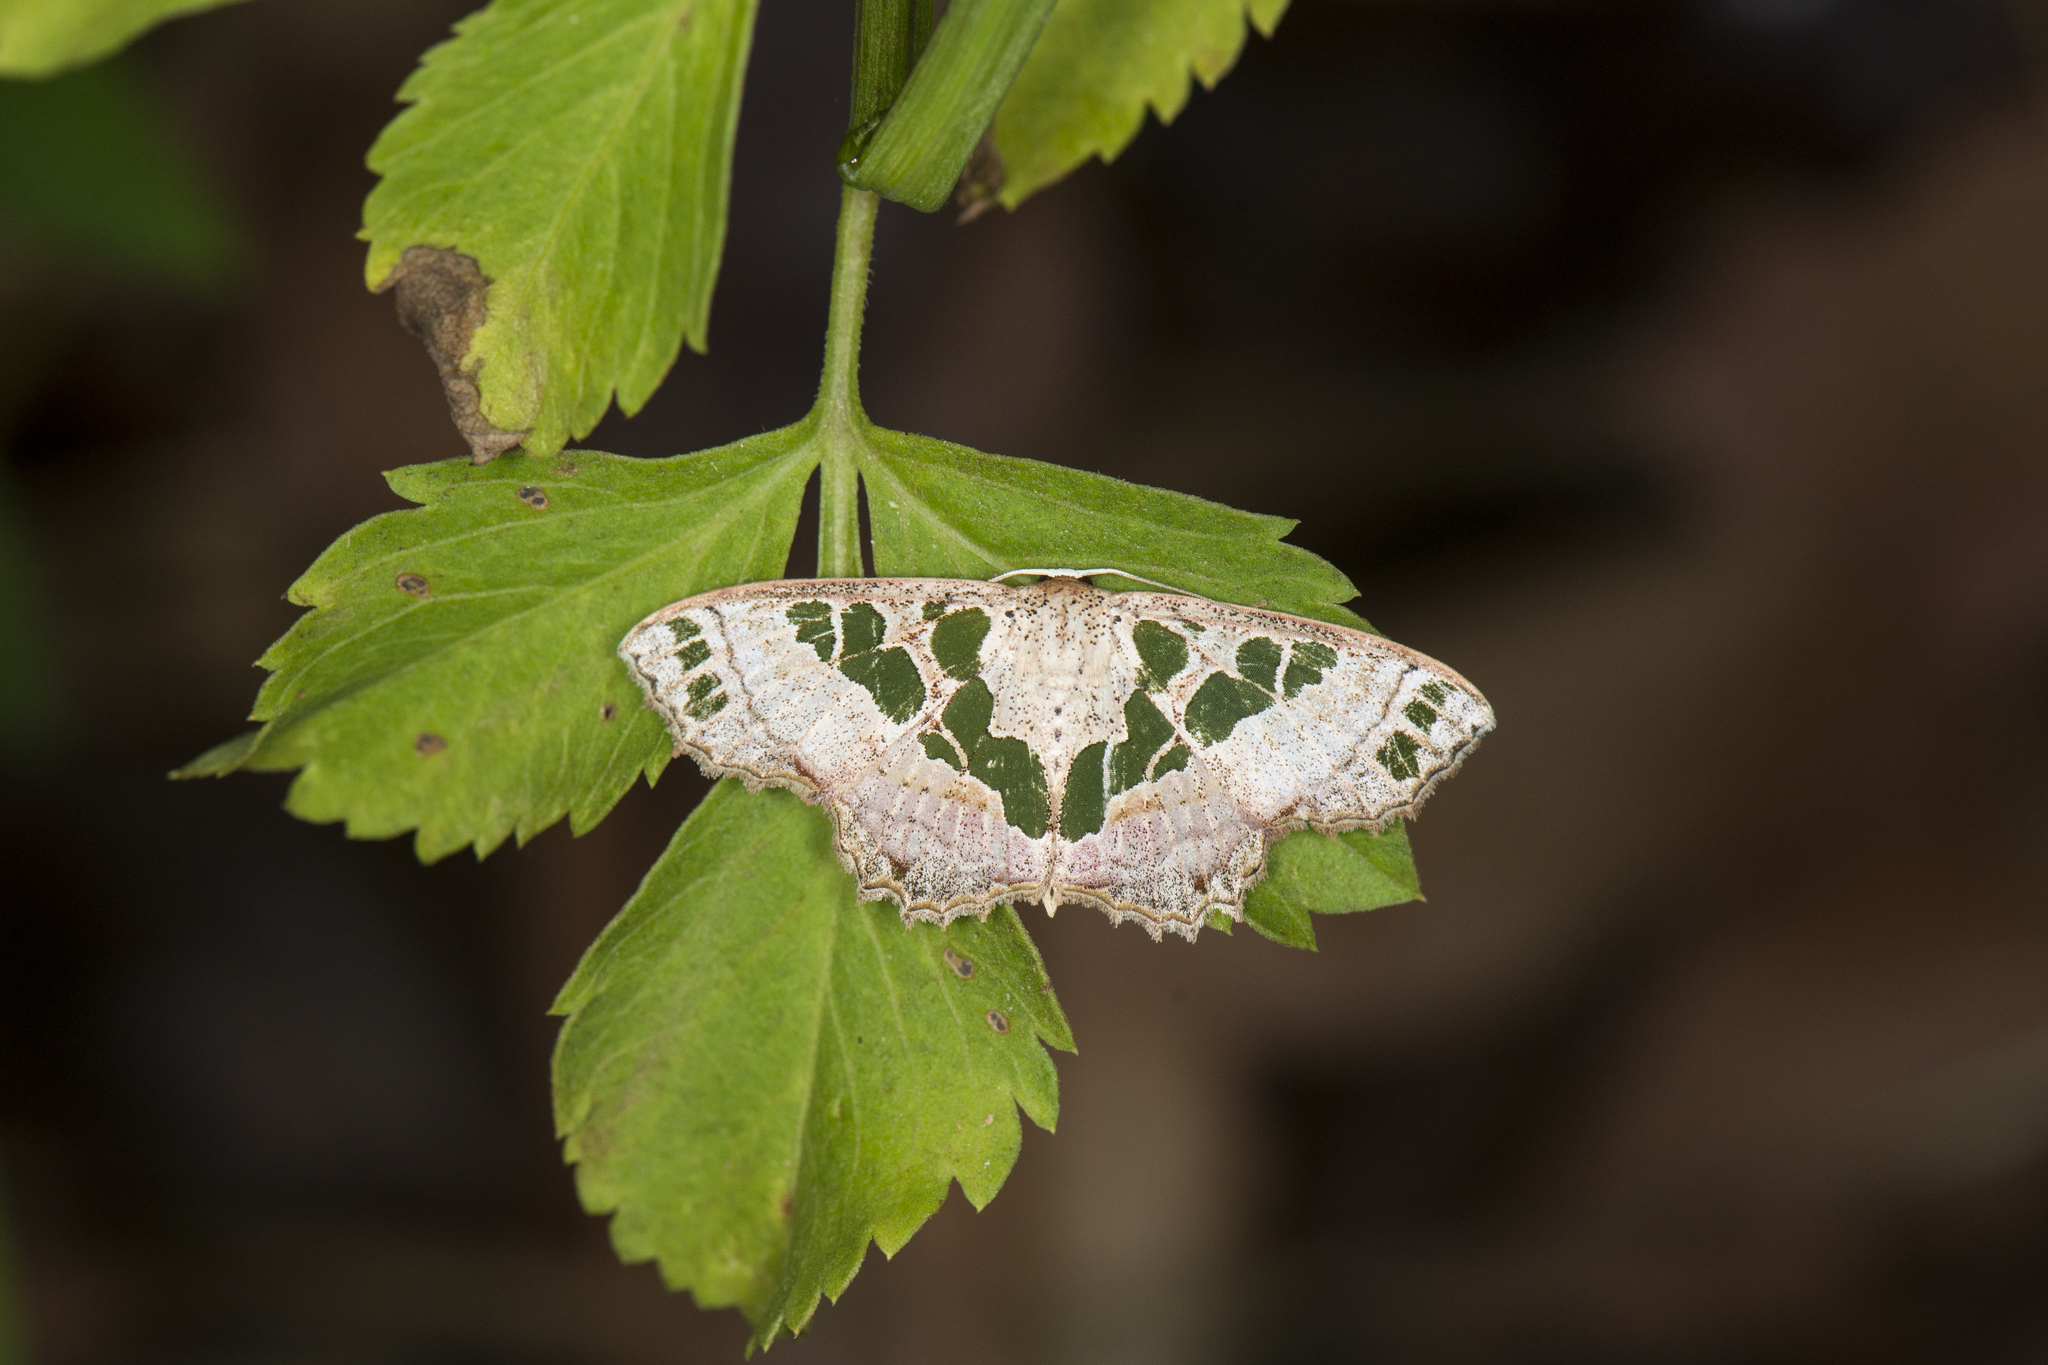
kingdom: Animalia
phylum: Arthropoda
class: Insecta
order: Lepidoptera
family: Geometridae
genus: Scopula
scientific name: Scopula divisaria
